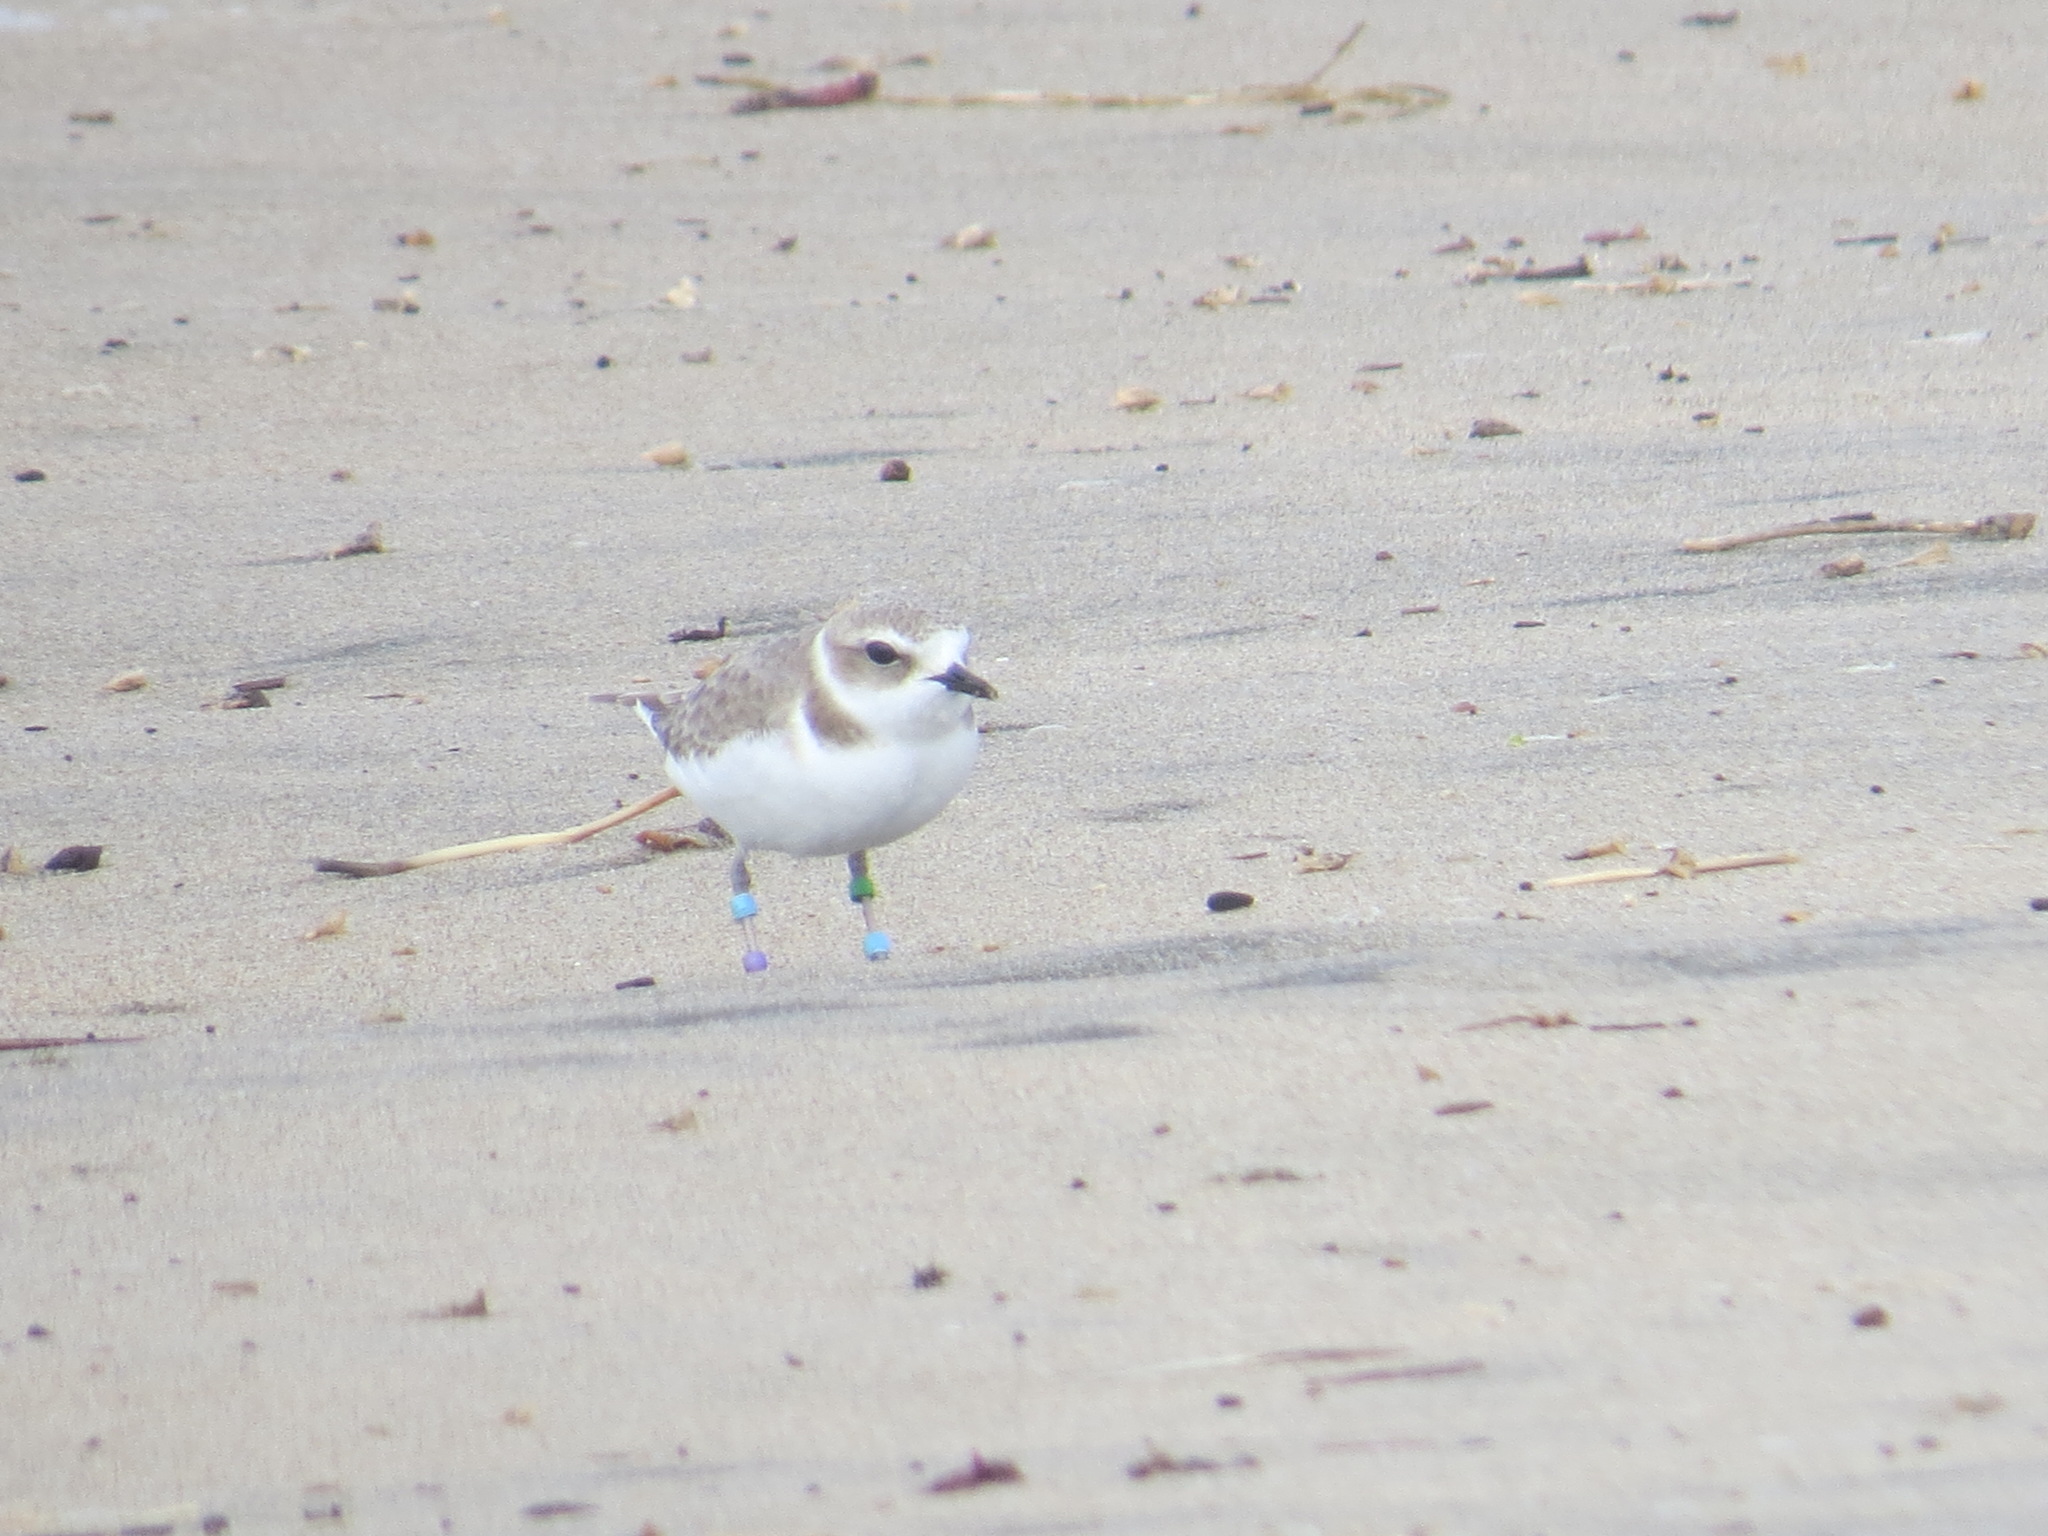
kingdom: Animalia
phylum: Chordata
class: Aves
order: Charadriiformes
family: Charadriidae
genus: Anarhynchus
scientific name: Anarhynchus
